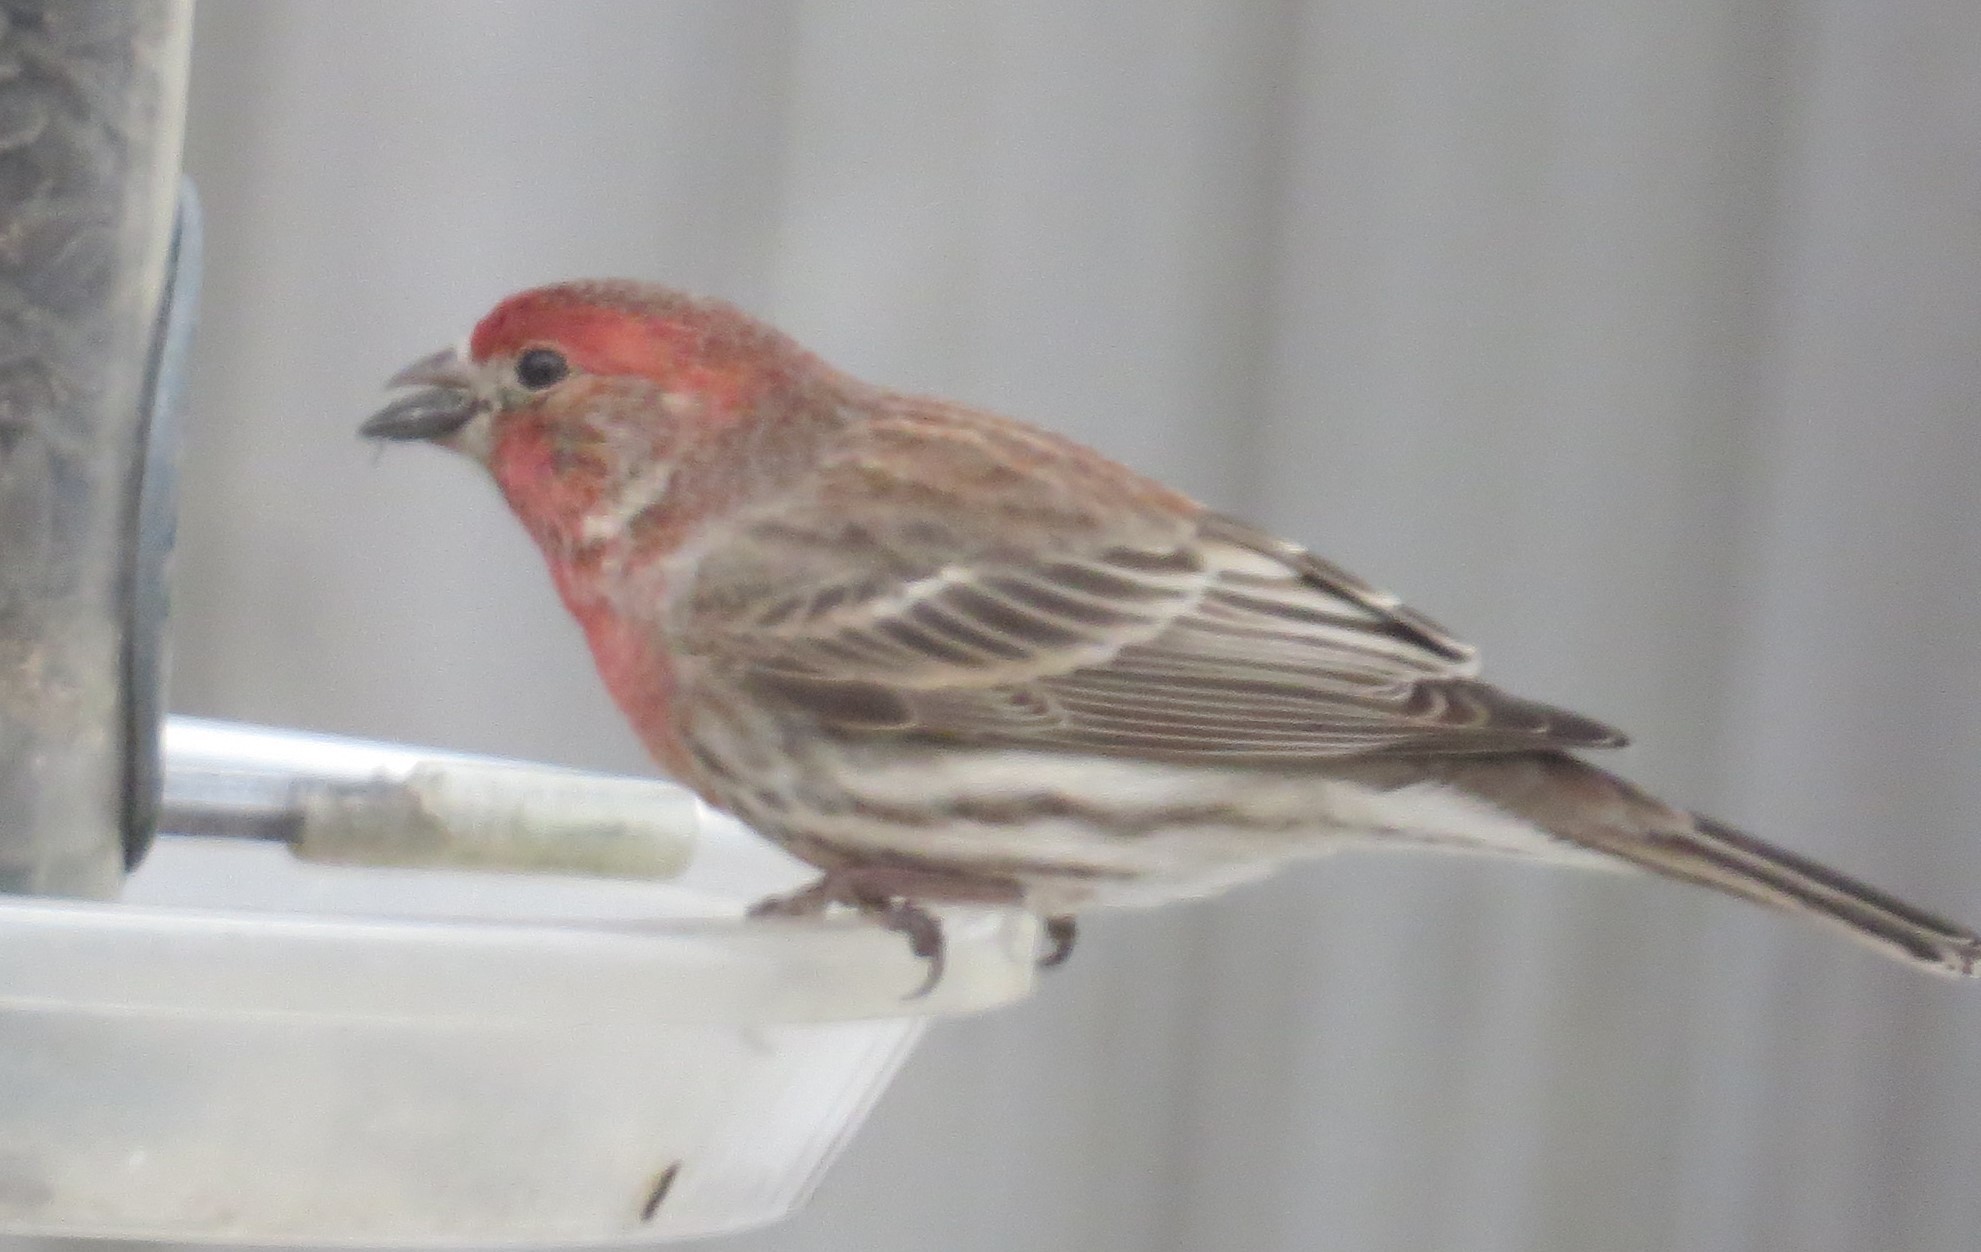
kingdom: Animalia
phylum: Chordata
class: Aves
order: Passeriformes
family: Fringillidae
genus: Haemorhous
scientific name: Haemorhous mexicanus
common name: House finch
